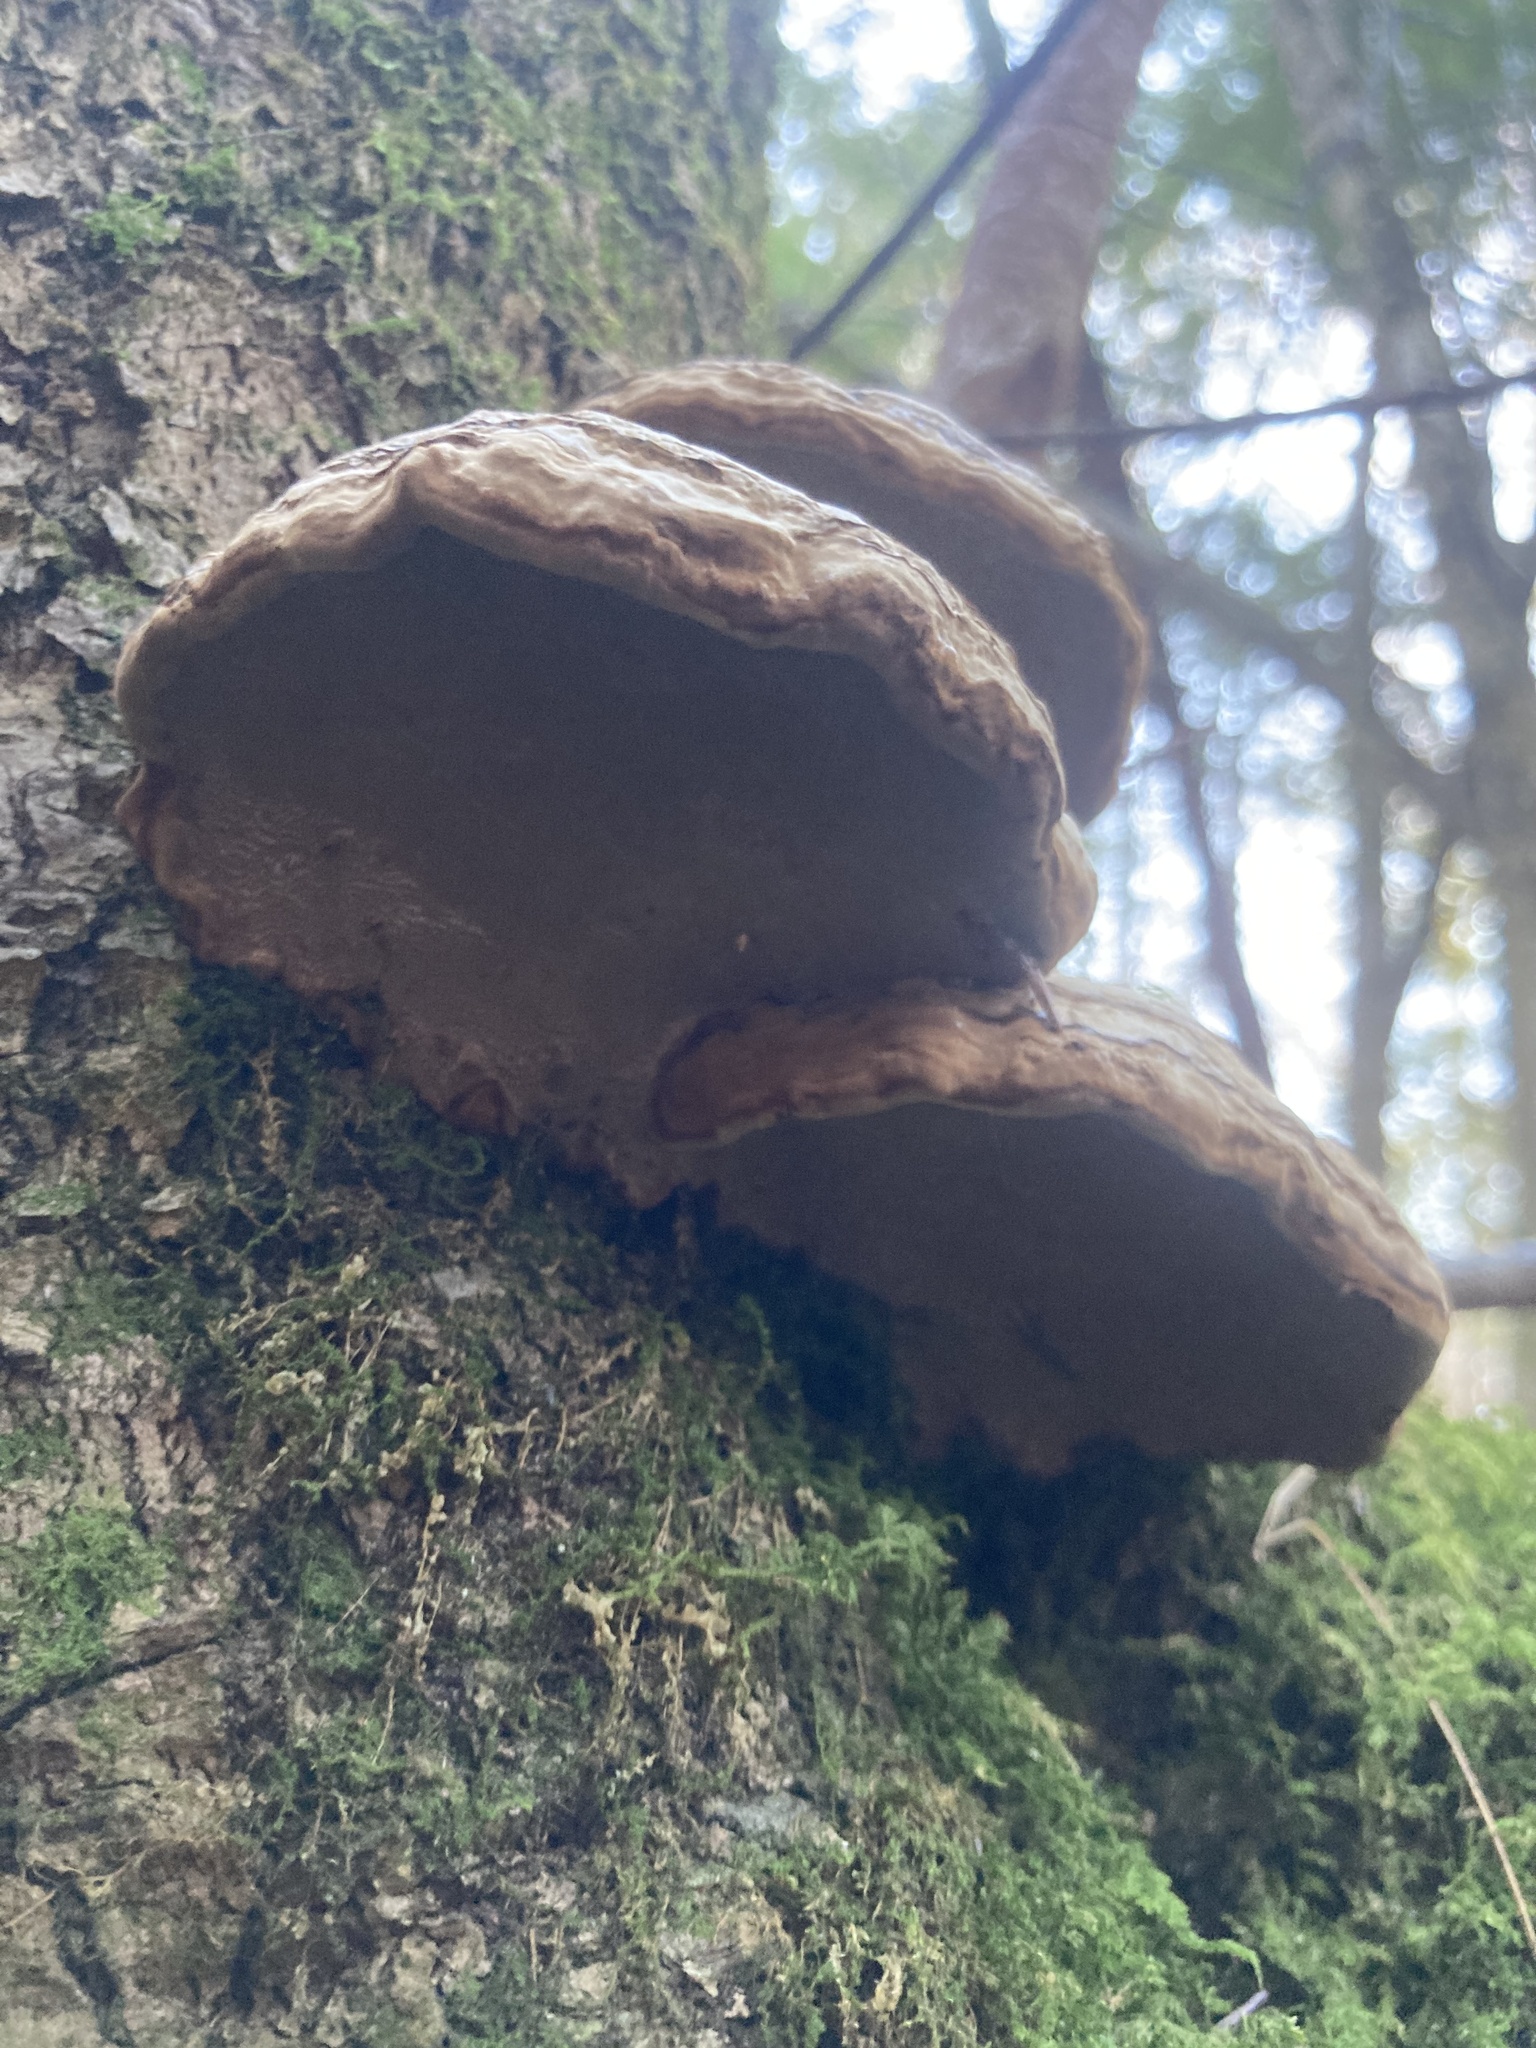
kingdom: Fungi
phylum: Basidiomycota
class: Agaricomycetes
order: Polyporales
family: Polyporaceae
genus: Fomes
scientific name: Fomes fomentarius
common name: Hoof fungus
